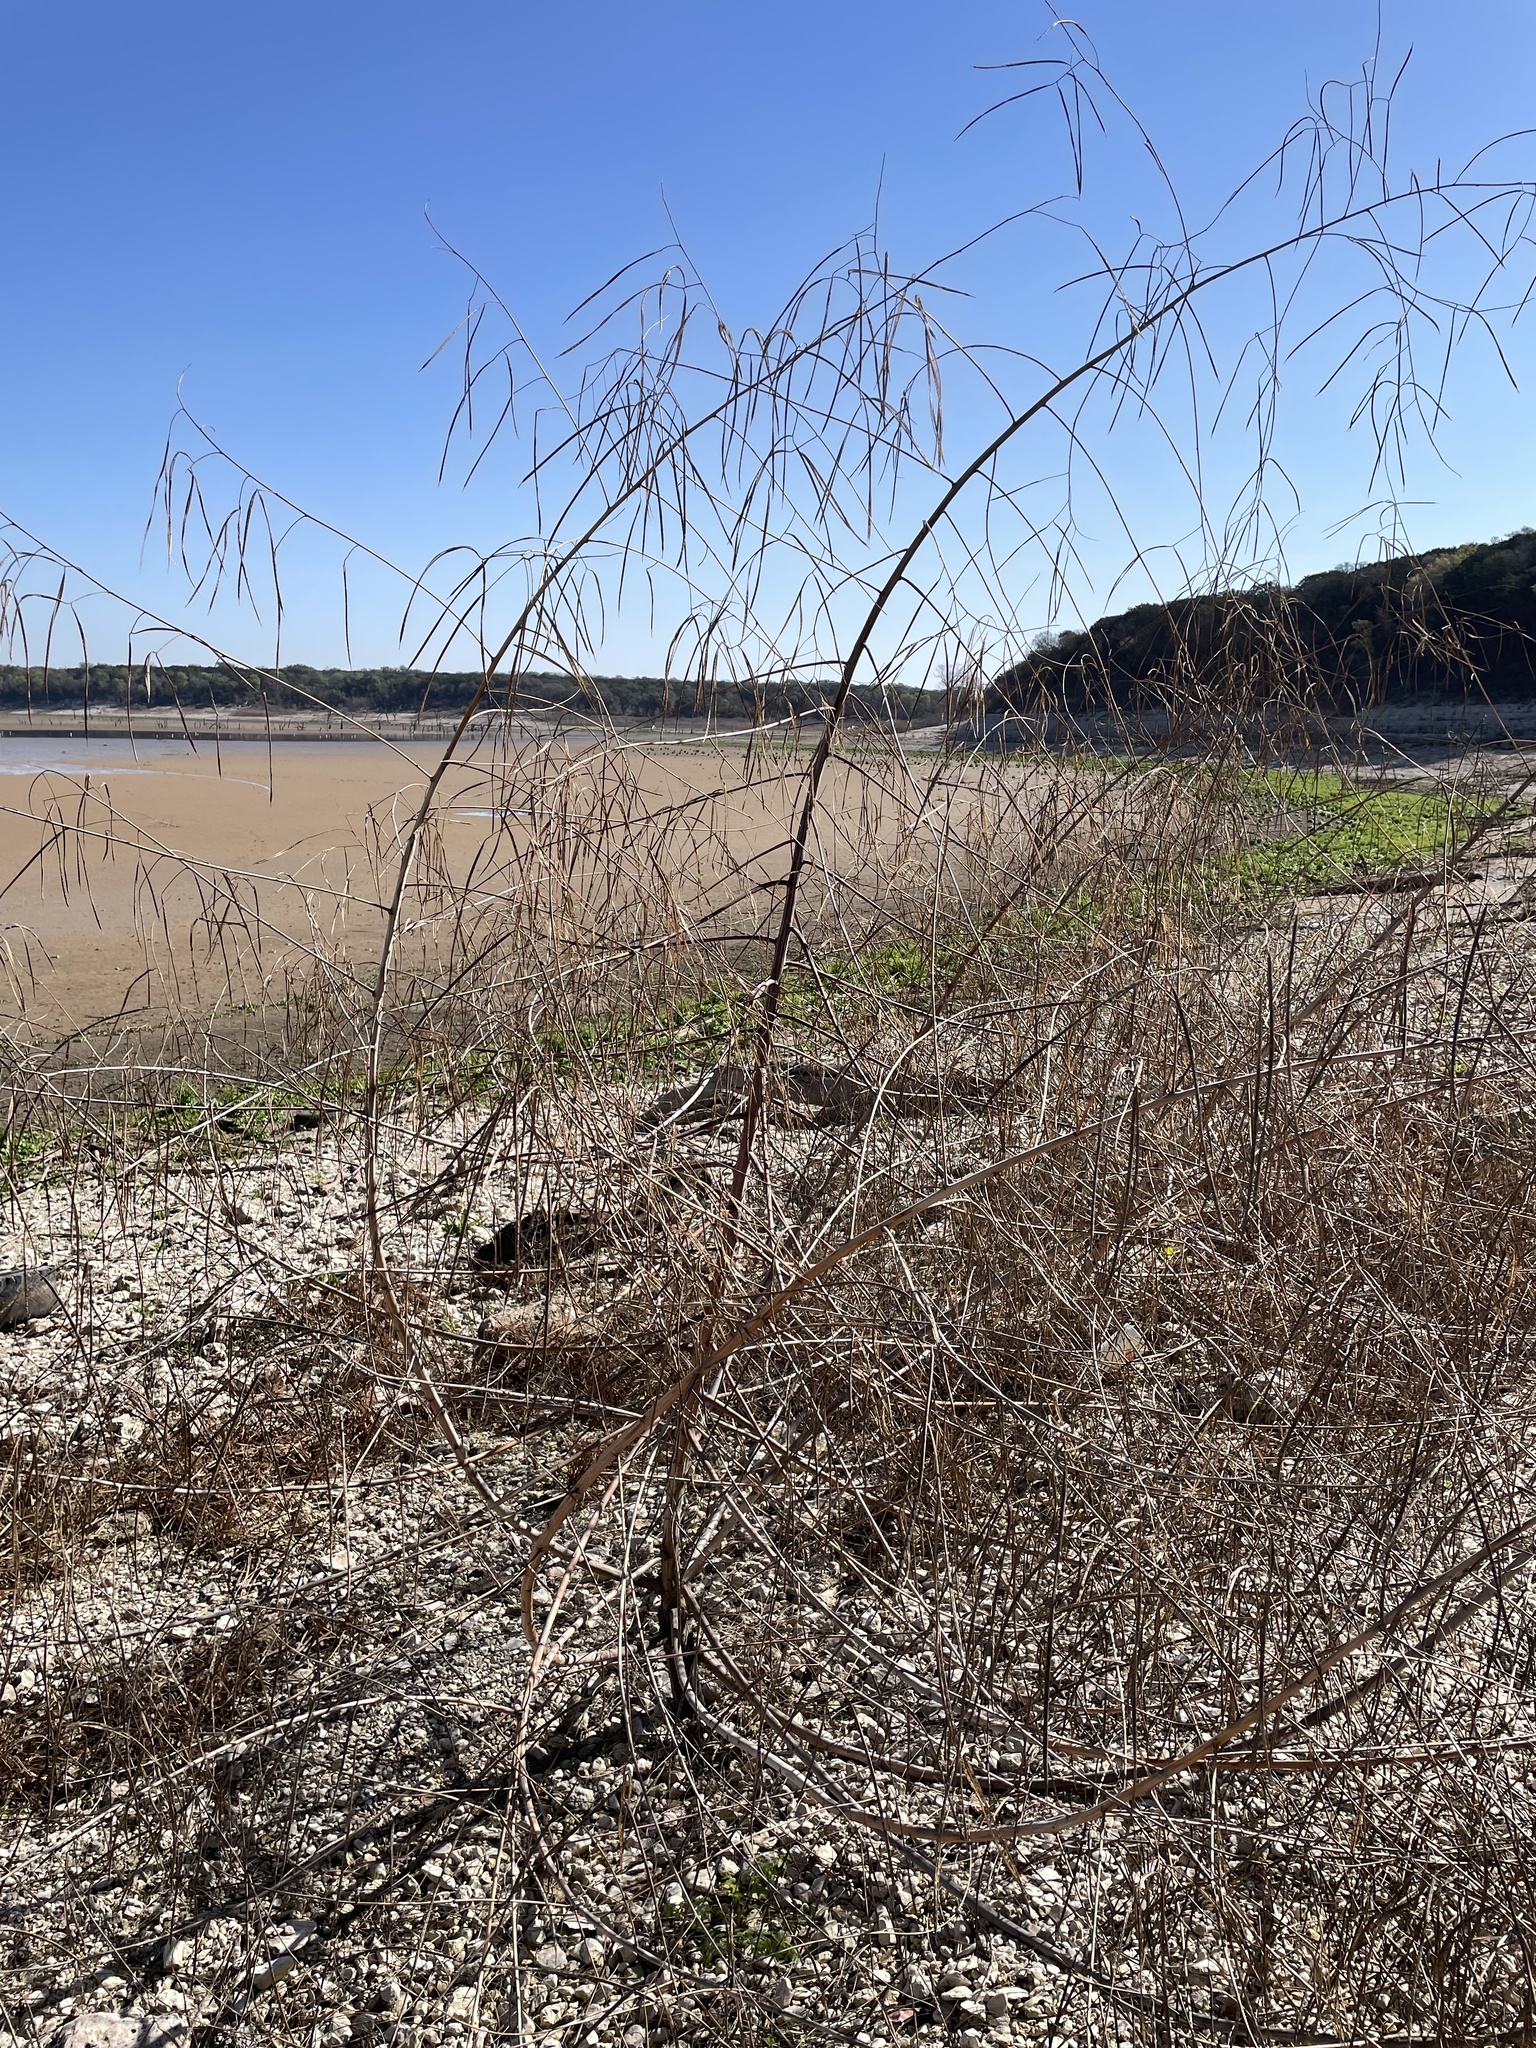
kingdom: Plantae
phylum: Tracheophyta
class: Magnoliopsida
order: Fabales
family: Fabaceae
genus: Sesbania
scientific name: Sesbania herbacea
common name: Bigpod sesbania
